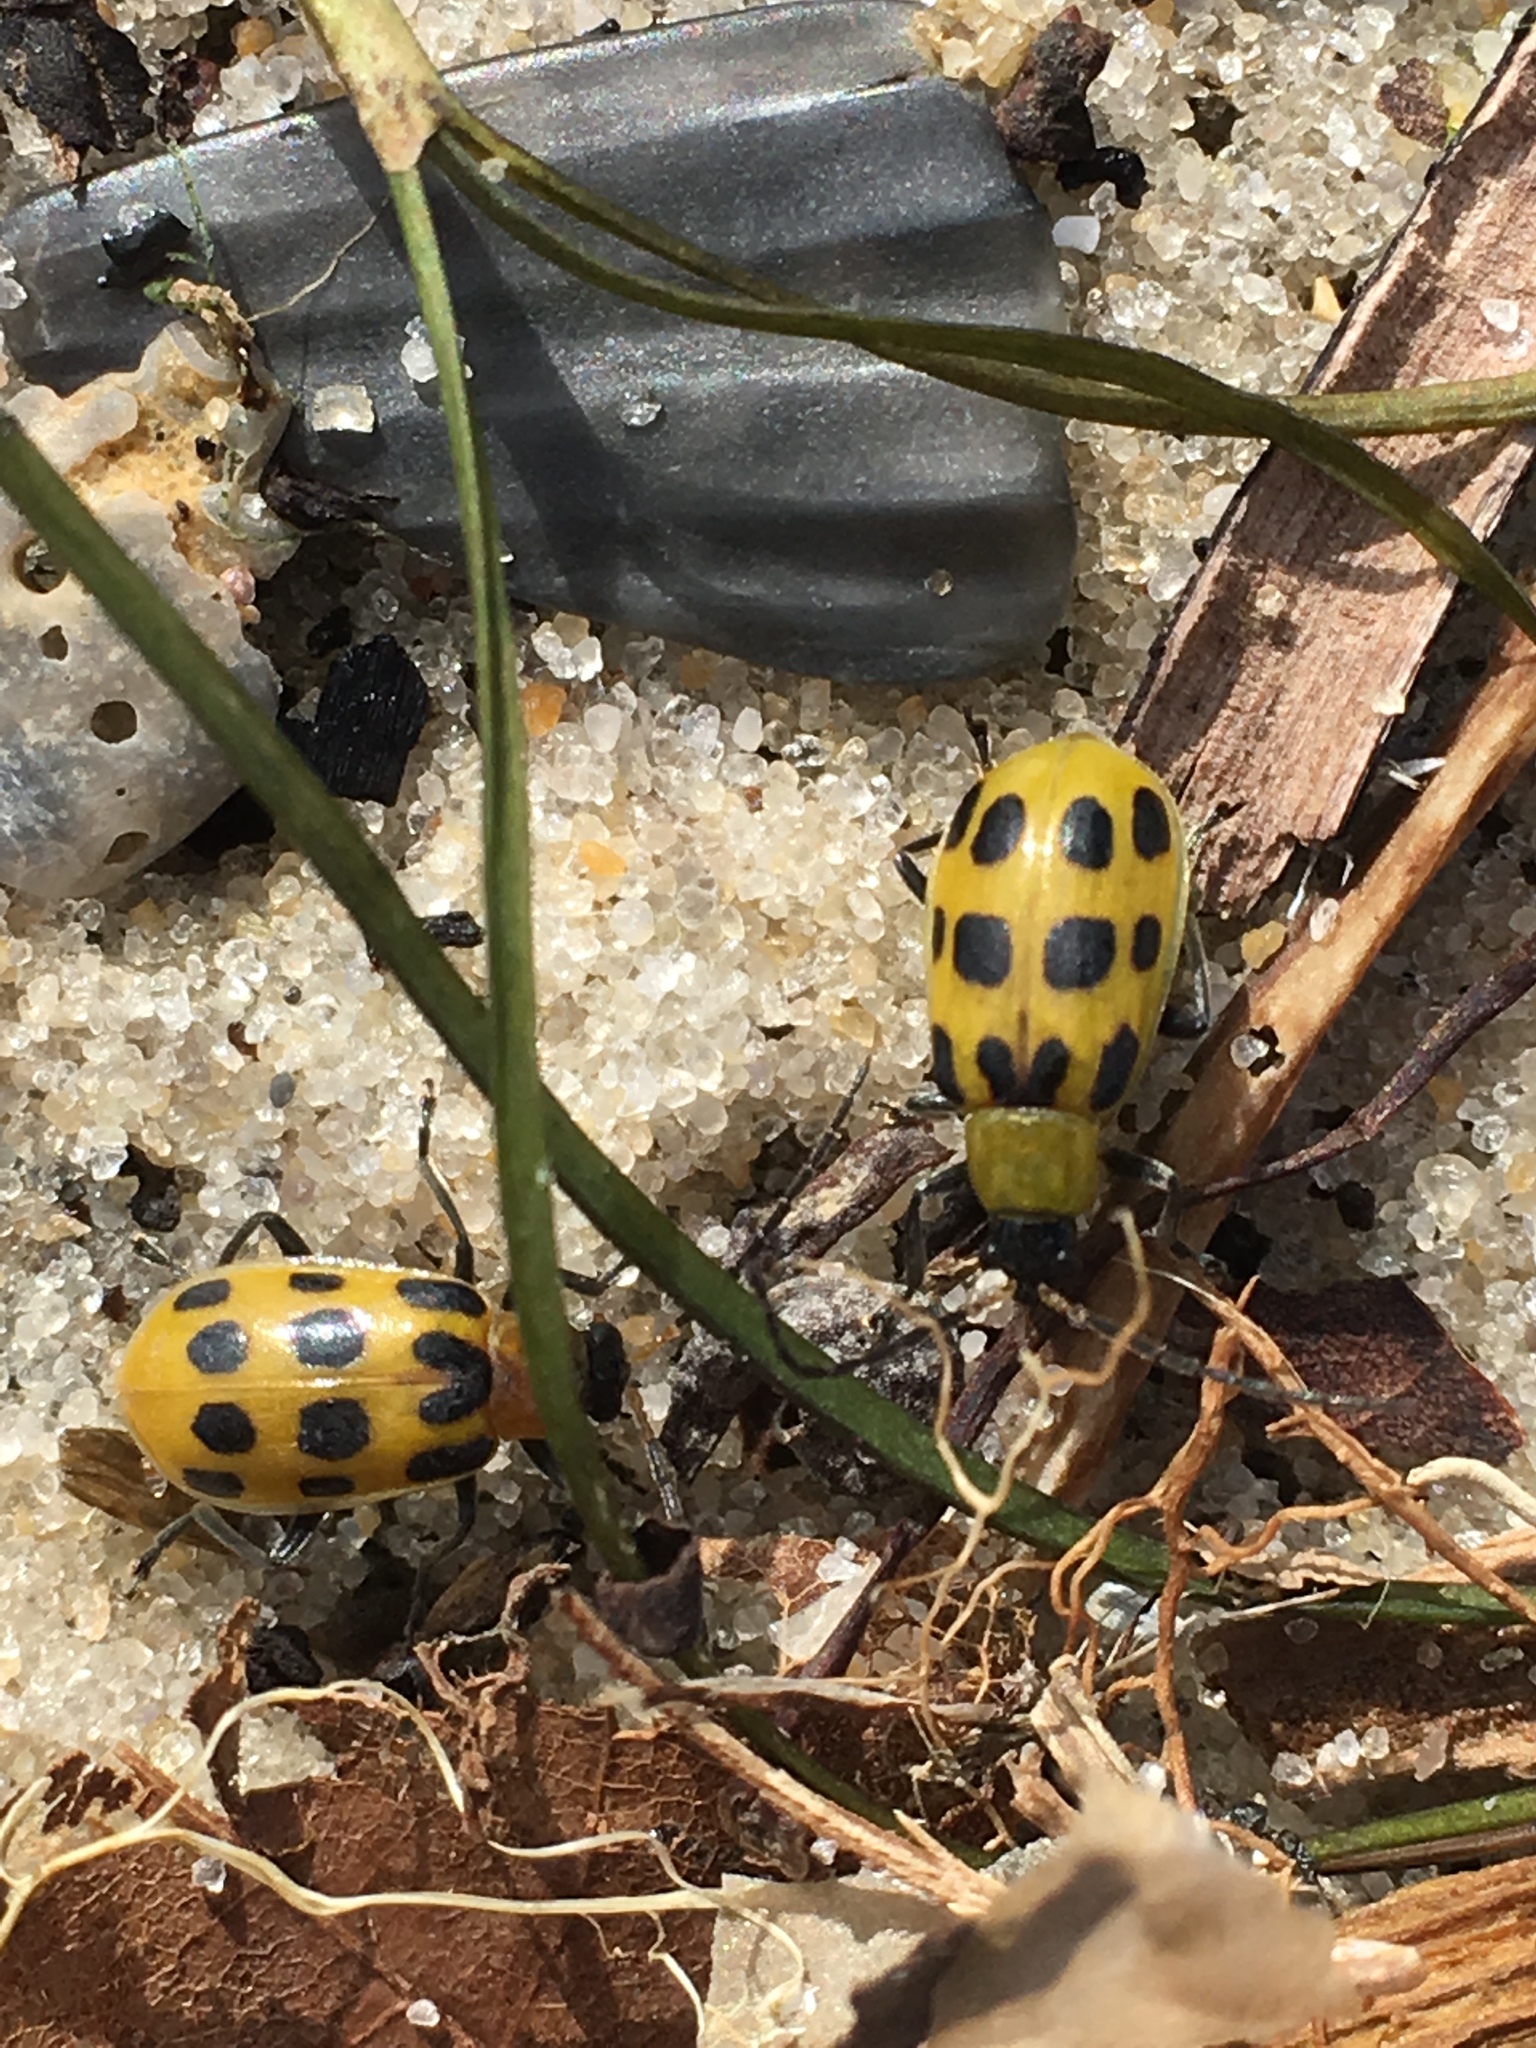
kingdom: Animalia
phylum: Arthropoda
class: Insecta
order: Coleoptera
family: Chrysomelidae
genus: Diabrotica
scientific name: Diabrotica undecimpunctata
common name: Spotted cucumber beetle
